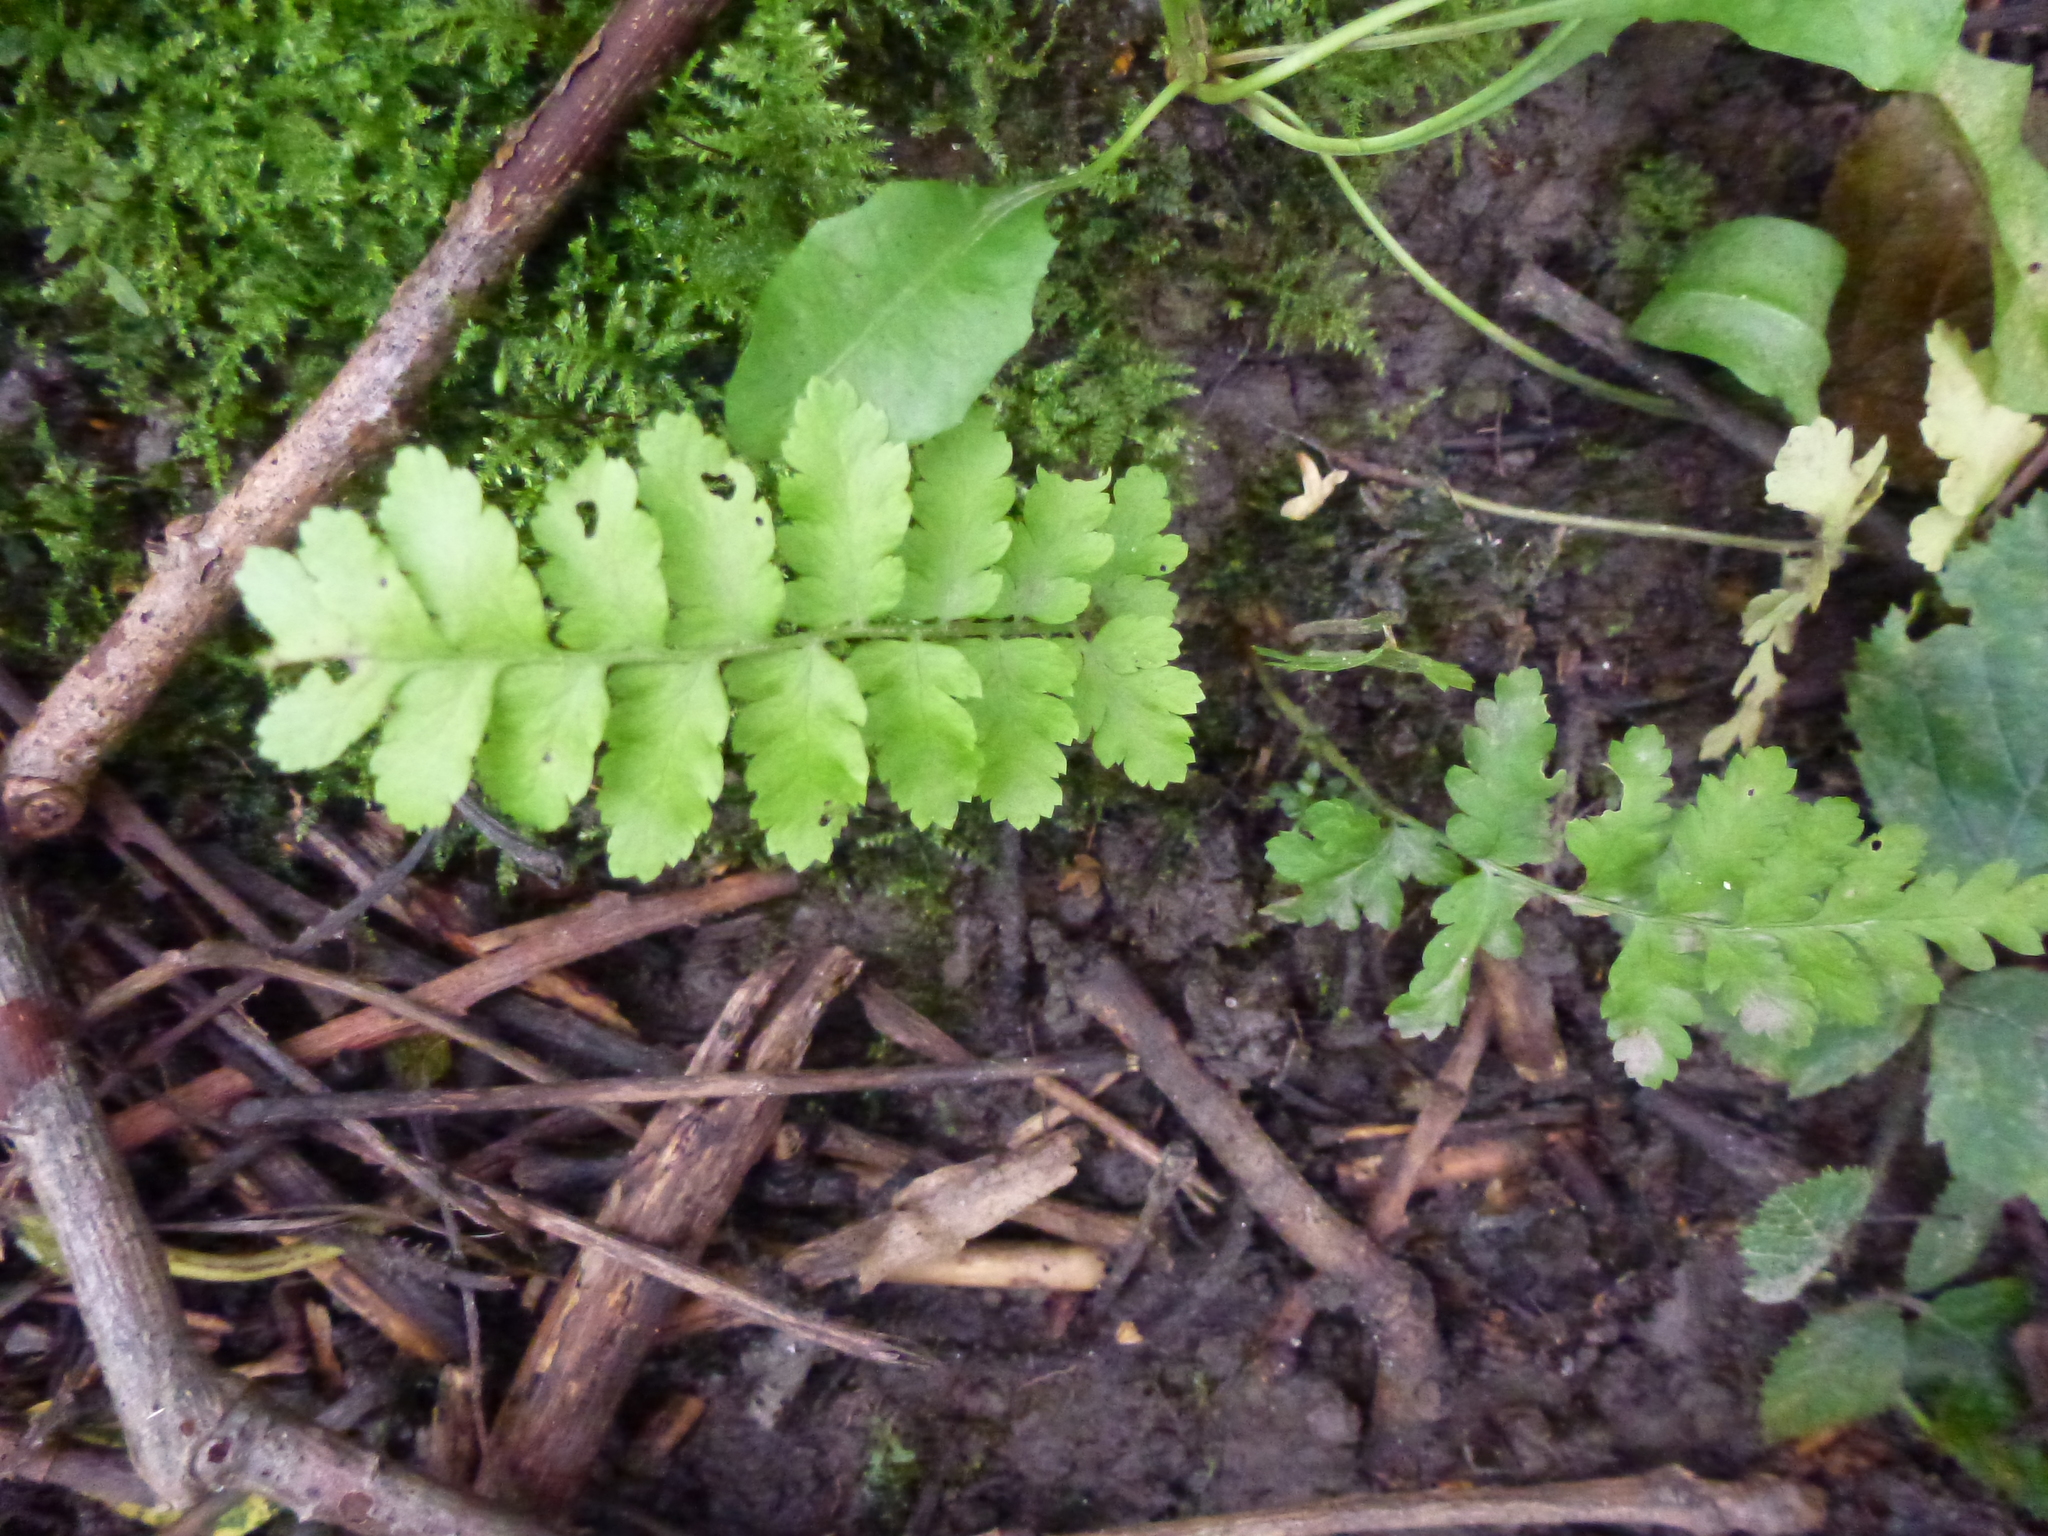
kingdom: Plantae
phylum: Tracheophyta
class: Polypodiopsida
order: Polypodiales
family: Dryopteridaceae
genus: Dryopteris
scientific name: Dryopteris filix-mas
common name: Male fern
